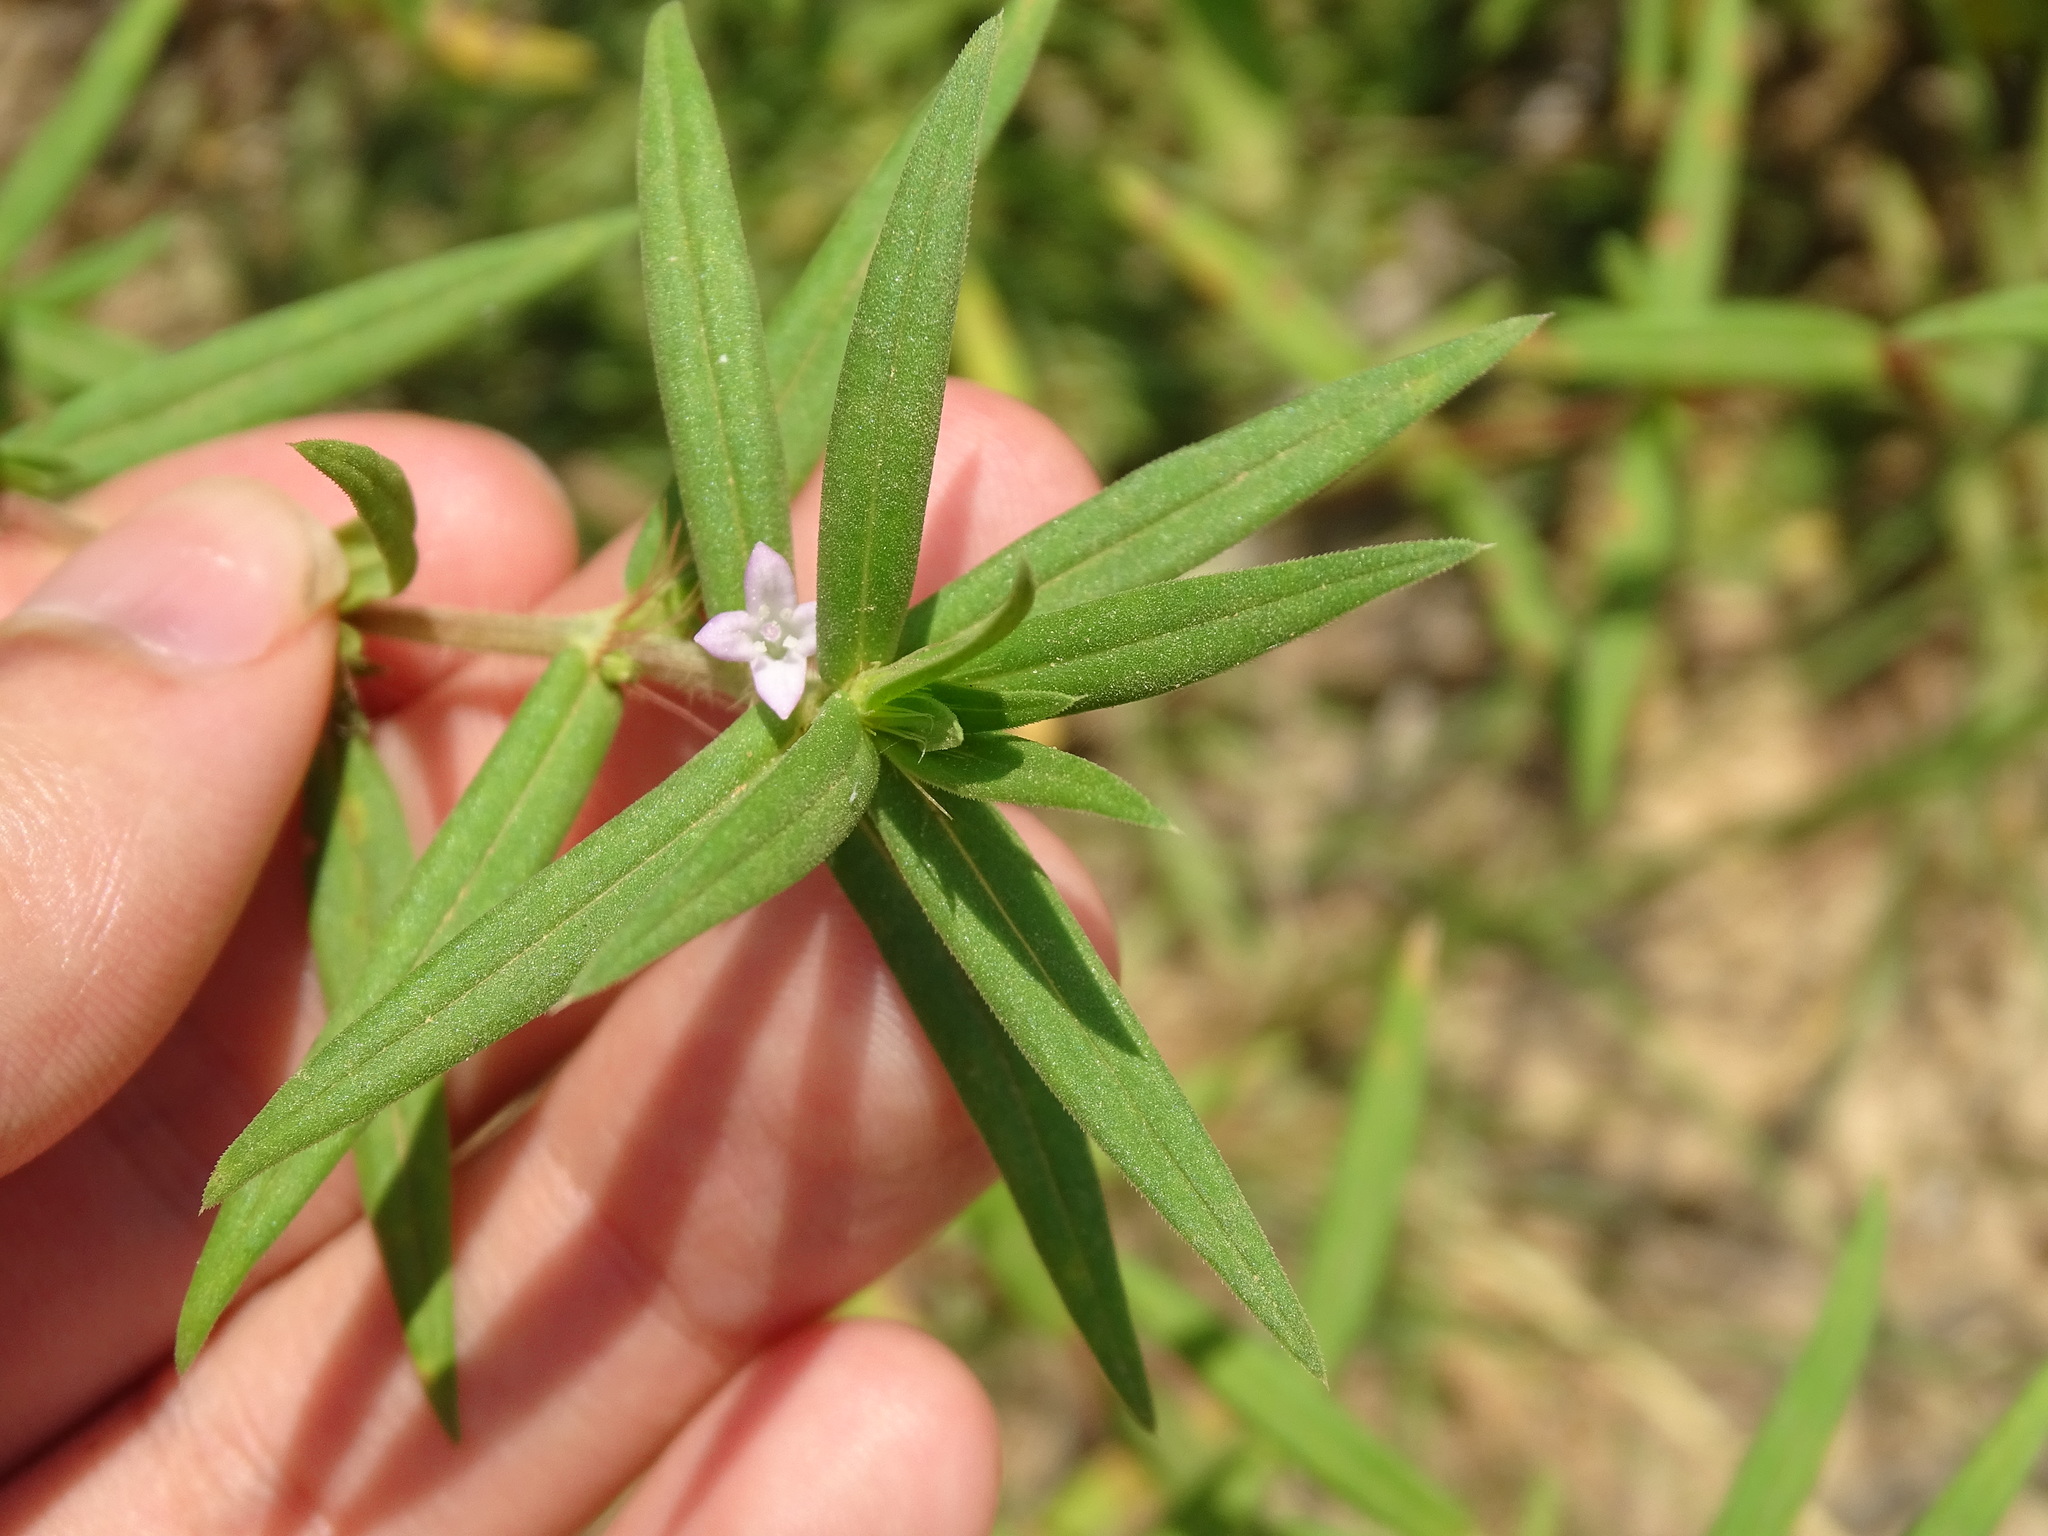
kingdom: Plantae
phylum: Tracheophyta
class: Magnoliopsida
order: Gentianales
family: Rubiaceae
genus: Hexasepalum
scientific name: Hexasepalum teres
